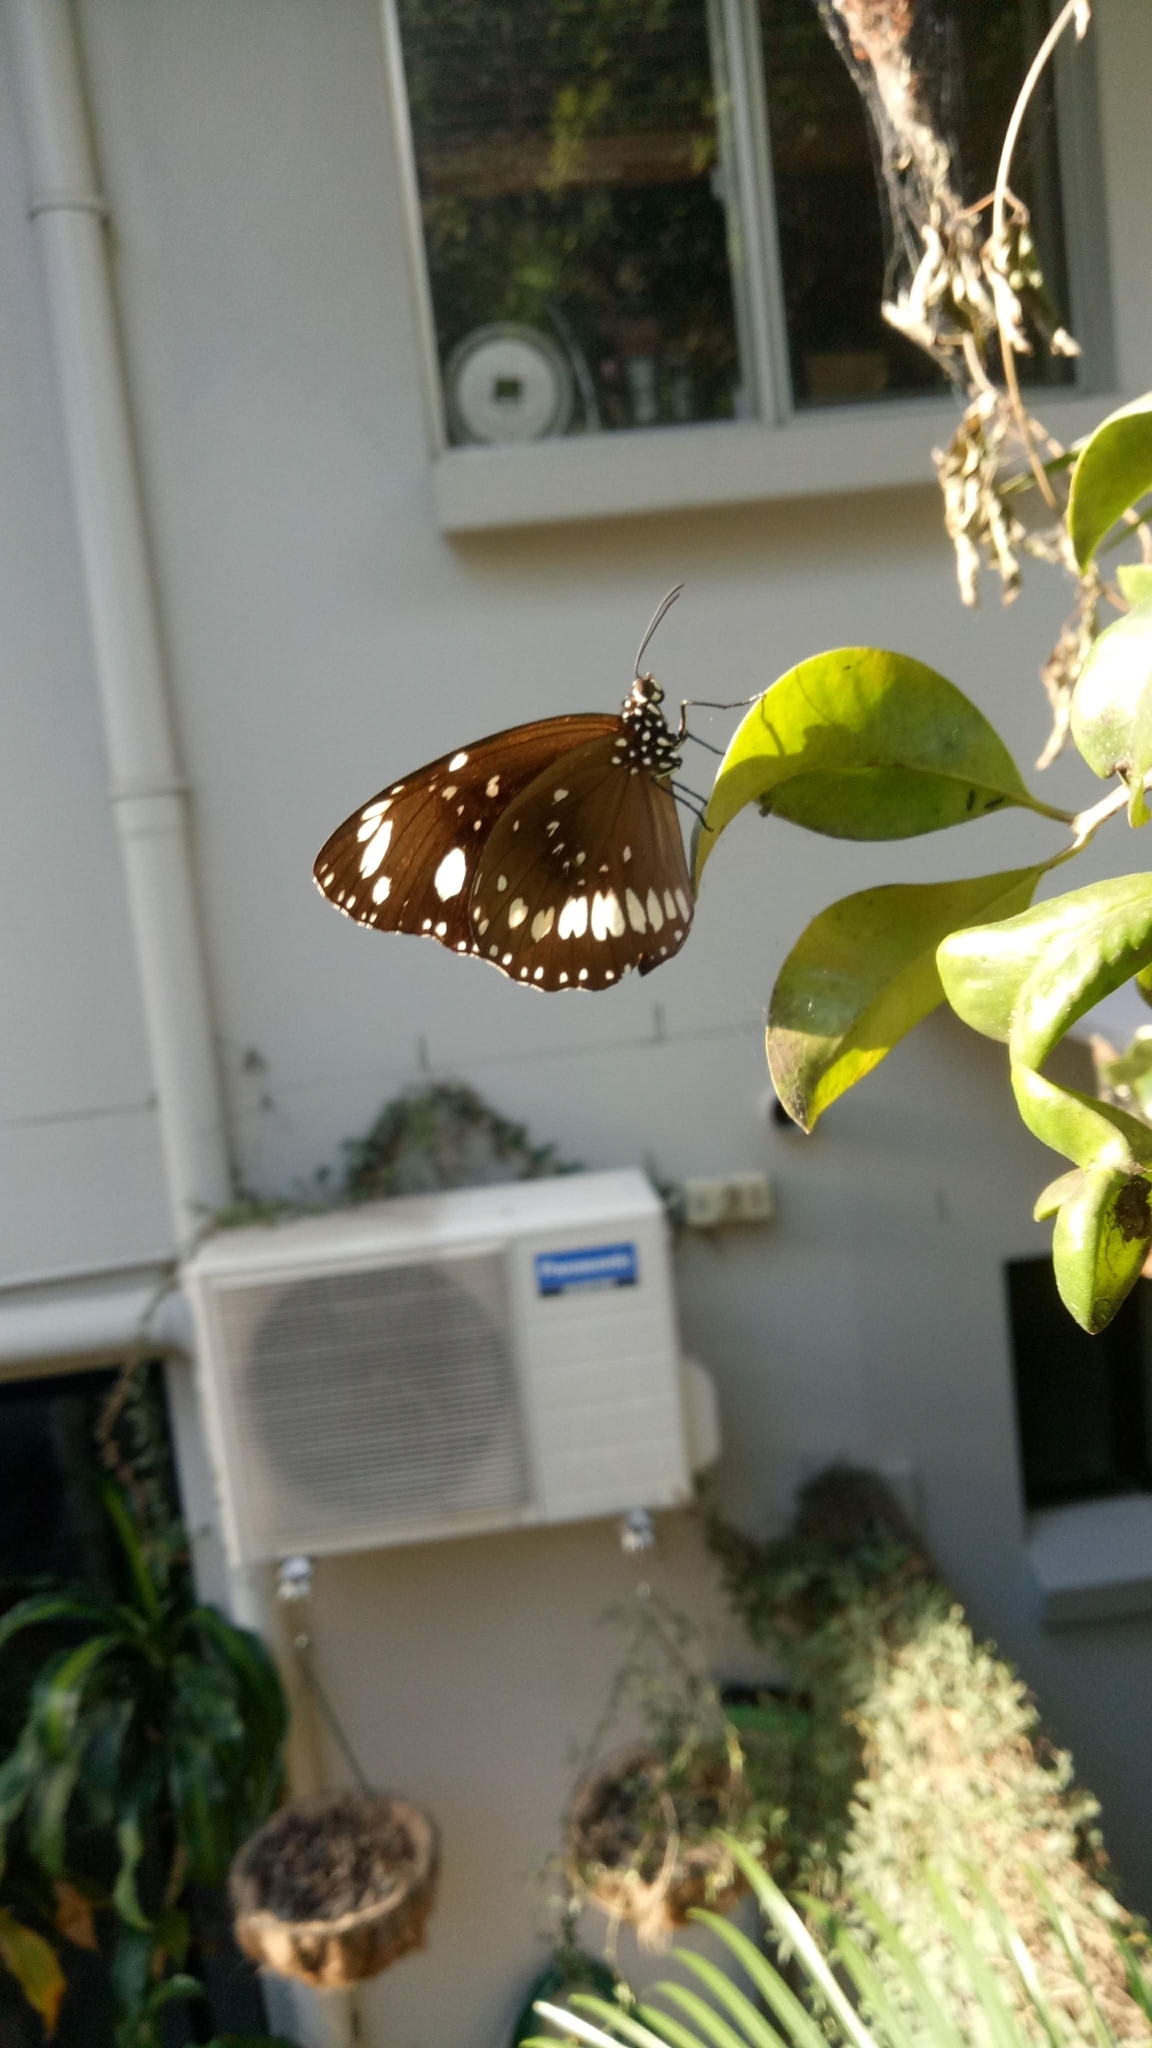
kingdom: Animalia
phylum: Arthropoda
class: Insecta
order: Lepidoptera
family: Nymphalidae
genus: Euploea
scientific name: Euploea core
